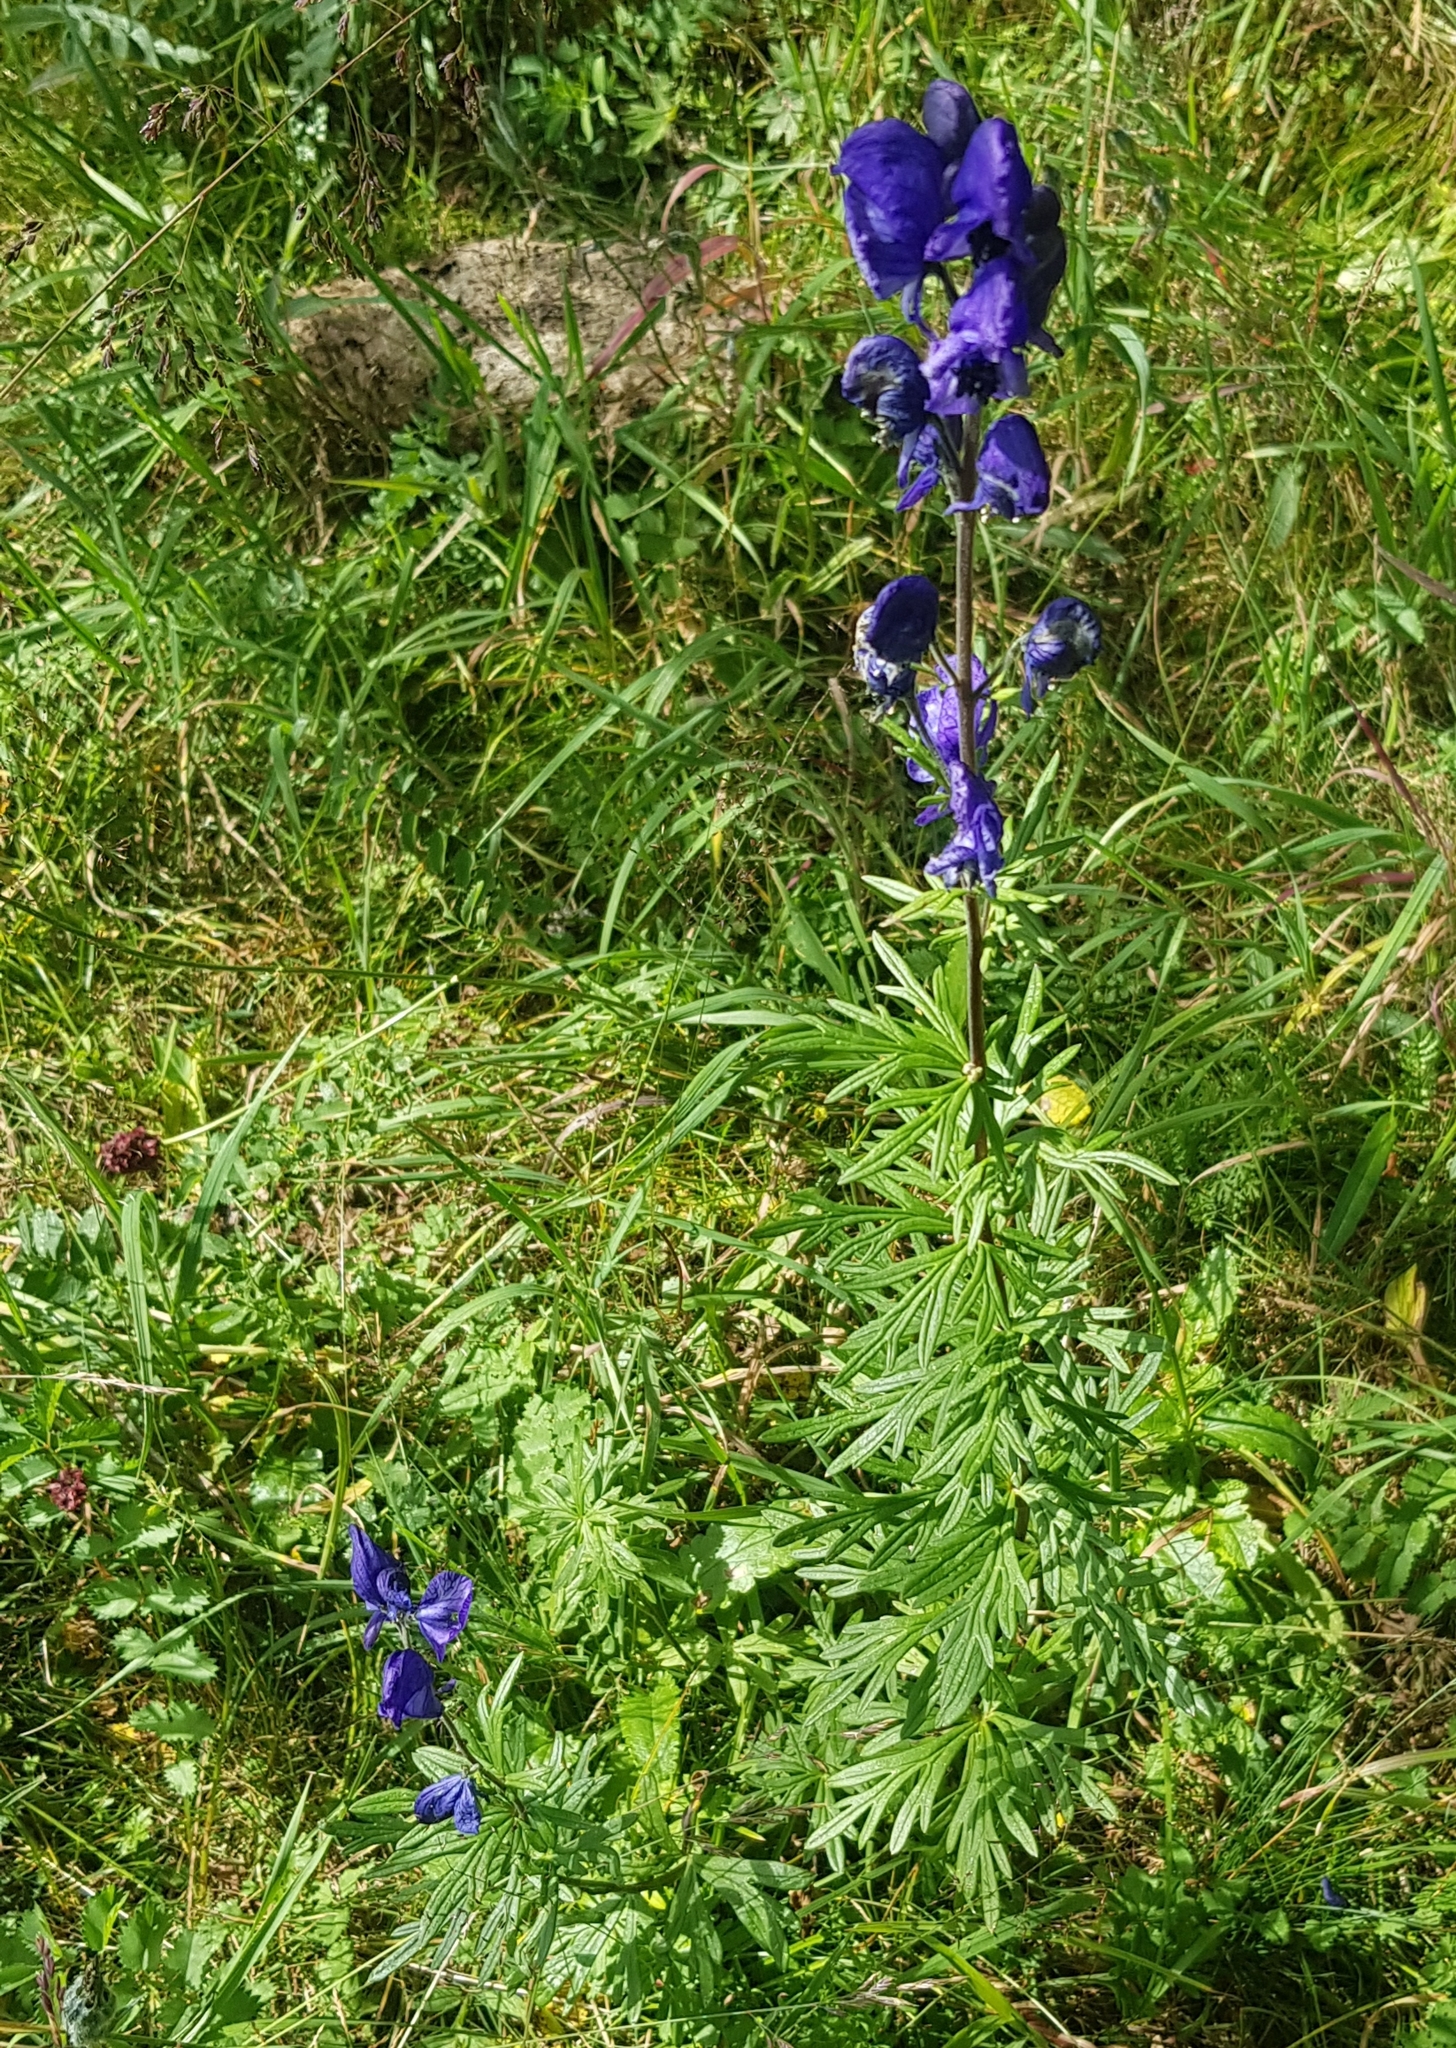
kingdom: Plantae
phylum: Tracheophyta
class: Magnoliopsida
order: Ranunculales
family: Ranunculaceae
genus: Aconitum
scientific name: Aconitum baicalense
